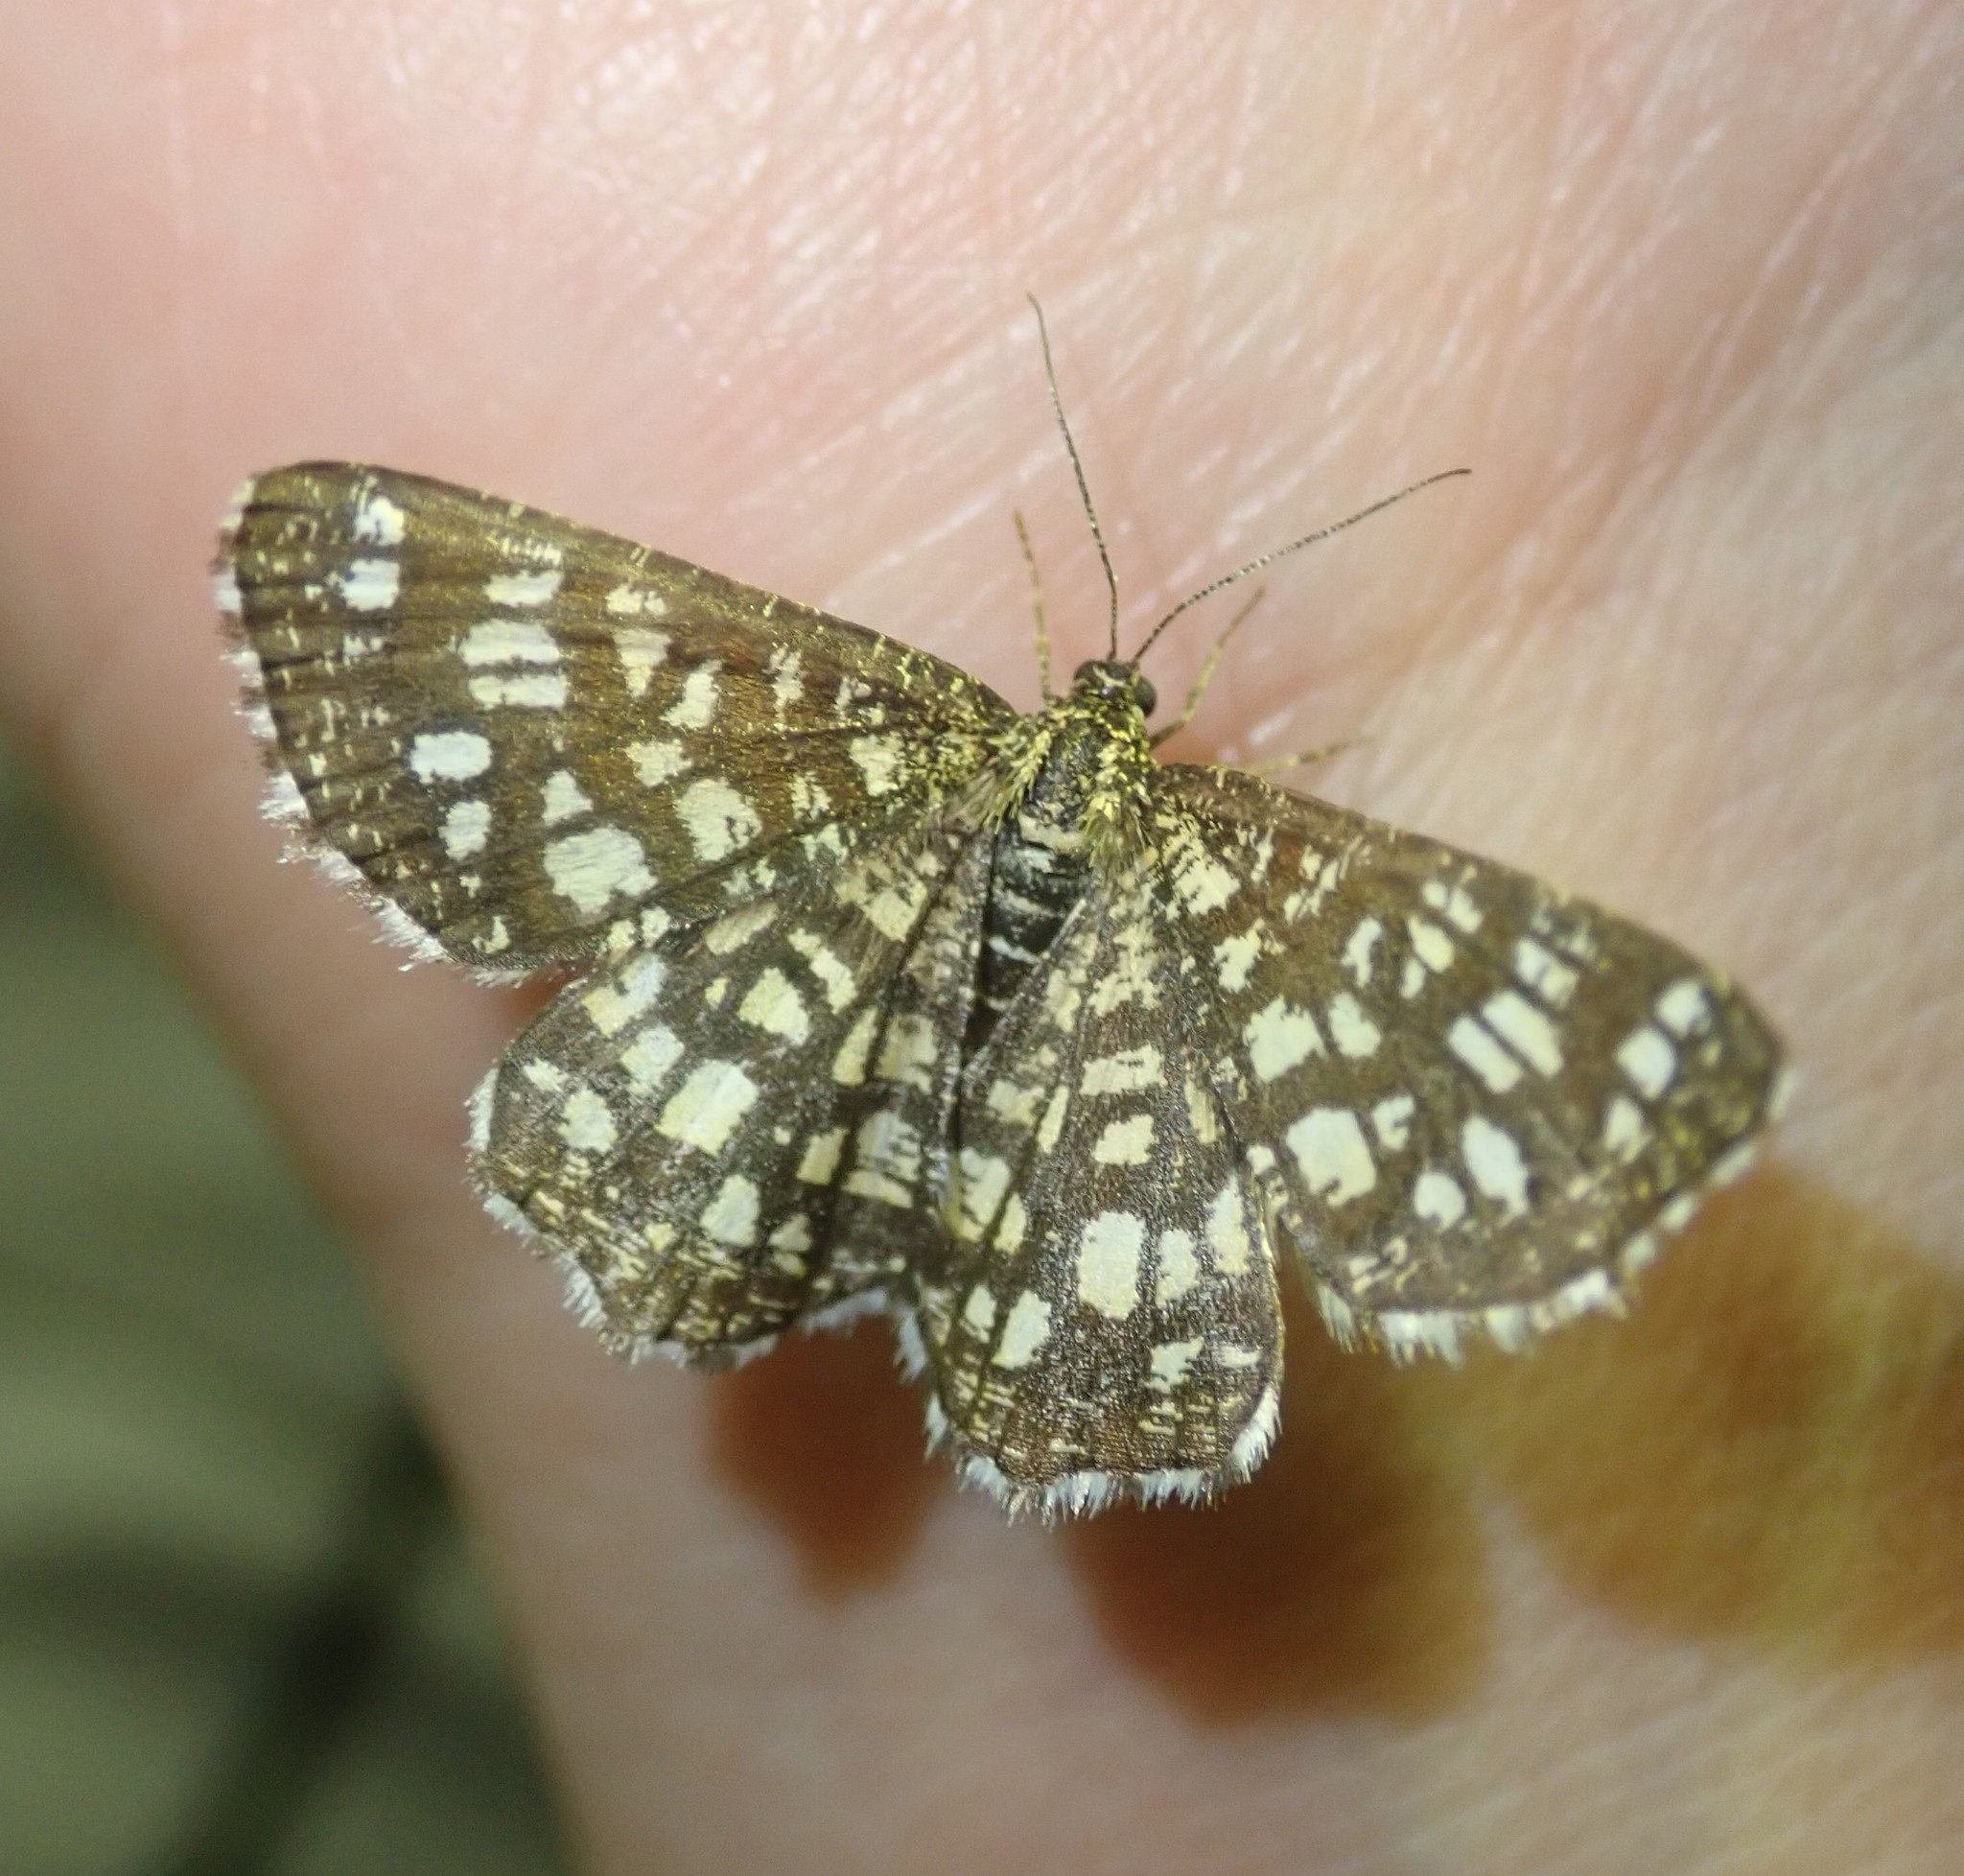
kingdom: Animalia
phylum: Arthropoda
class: Insecta
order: Lepidoptera
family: Geometridae
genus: Chiasmia
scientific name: Chiasmia clathrata
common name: Latticed heath
